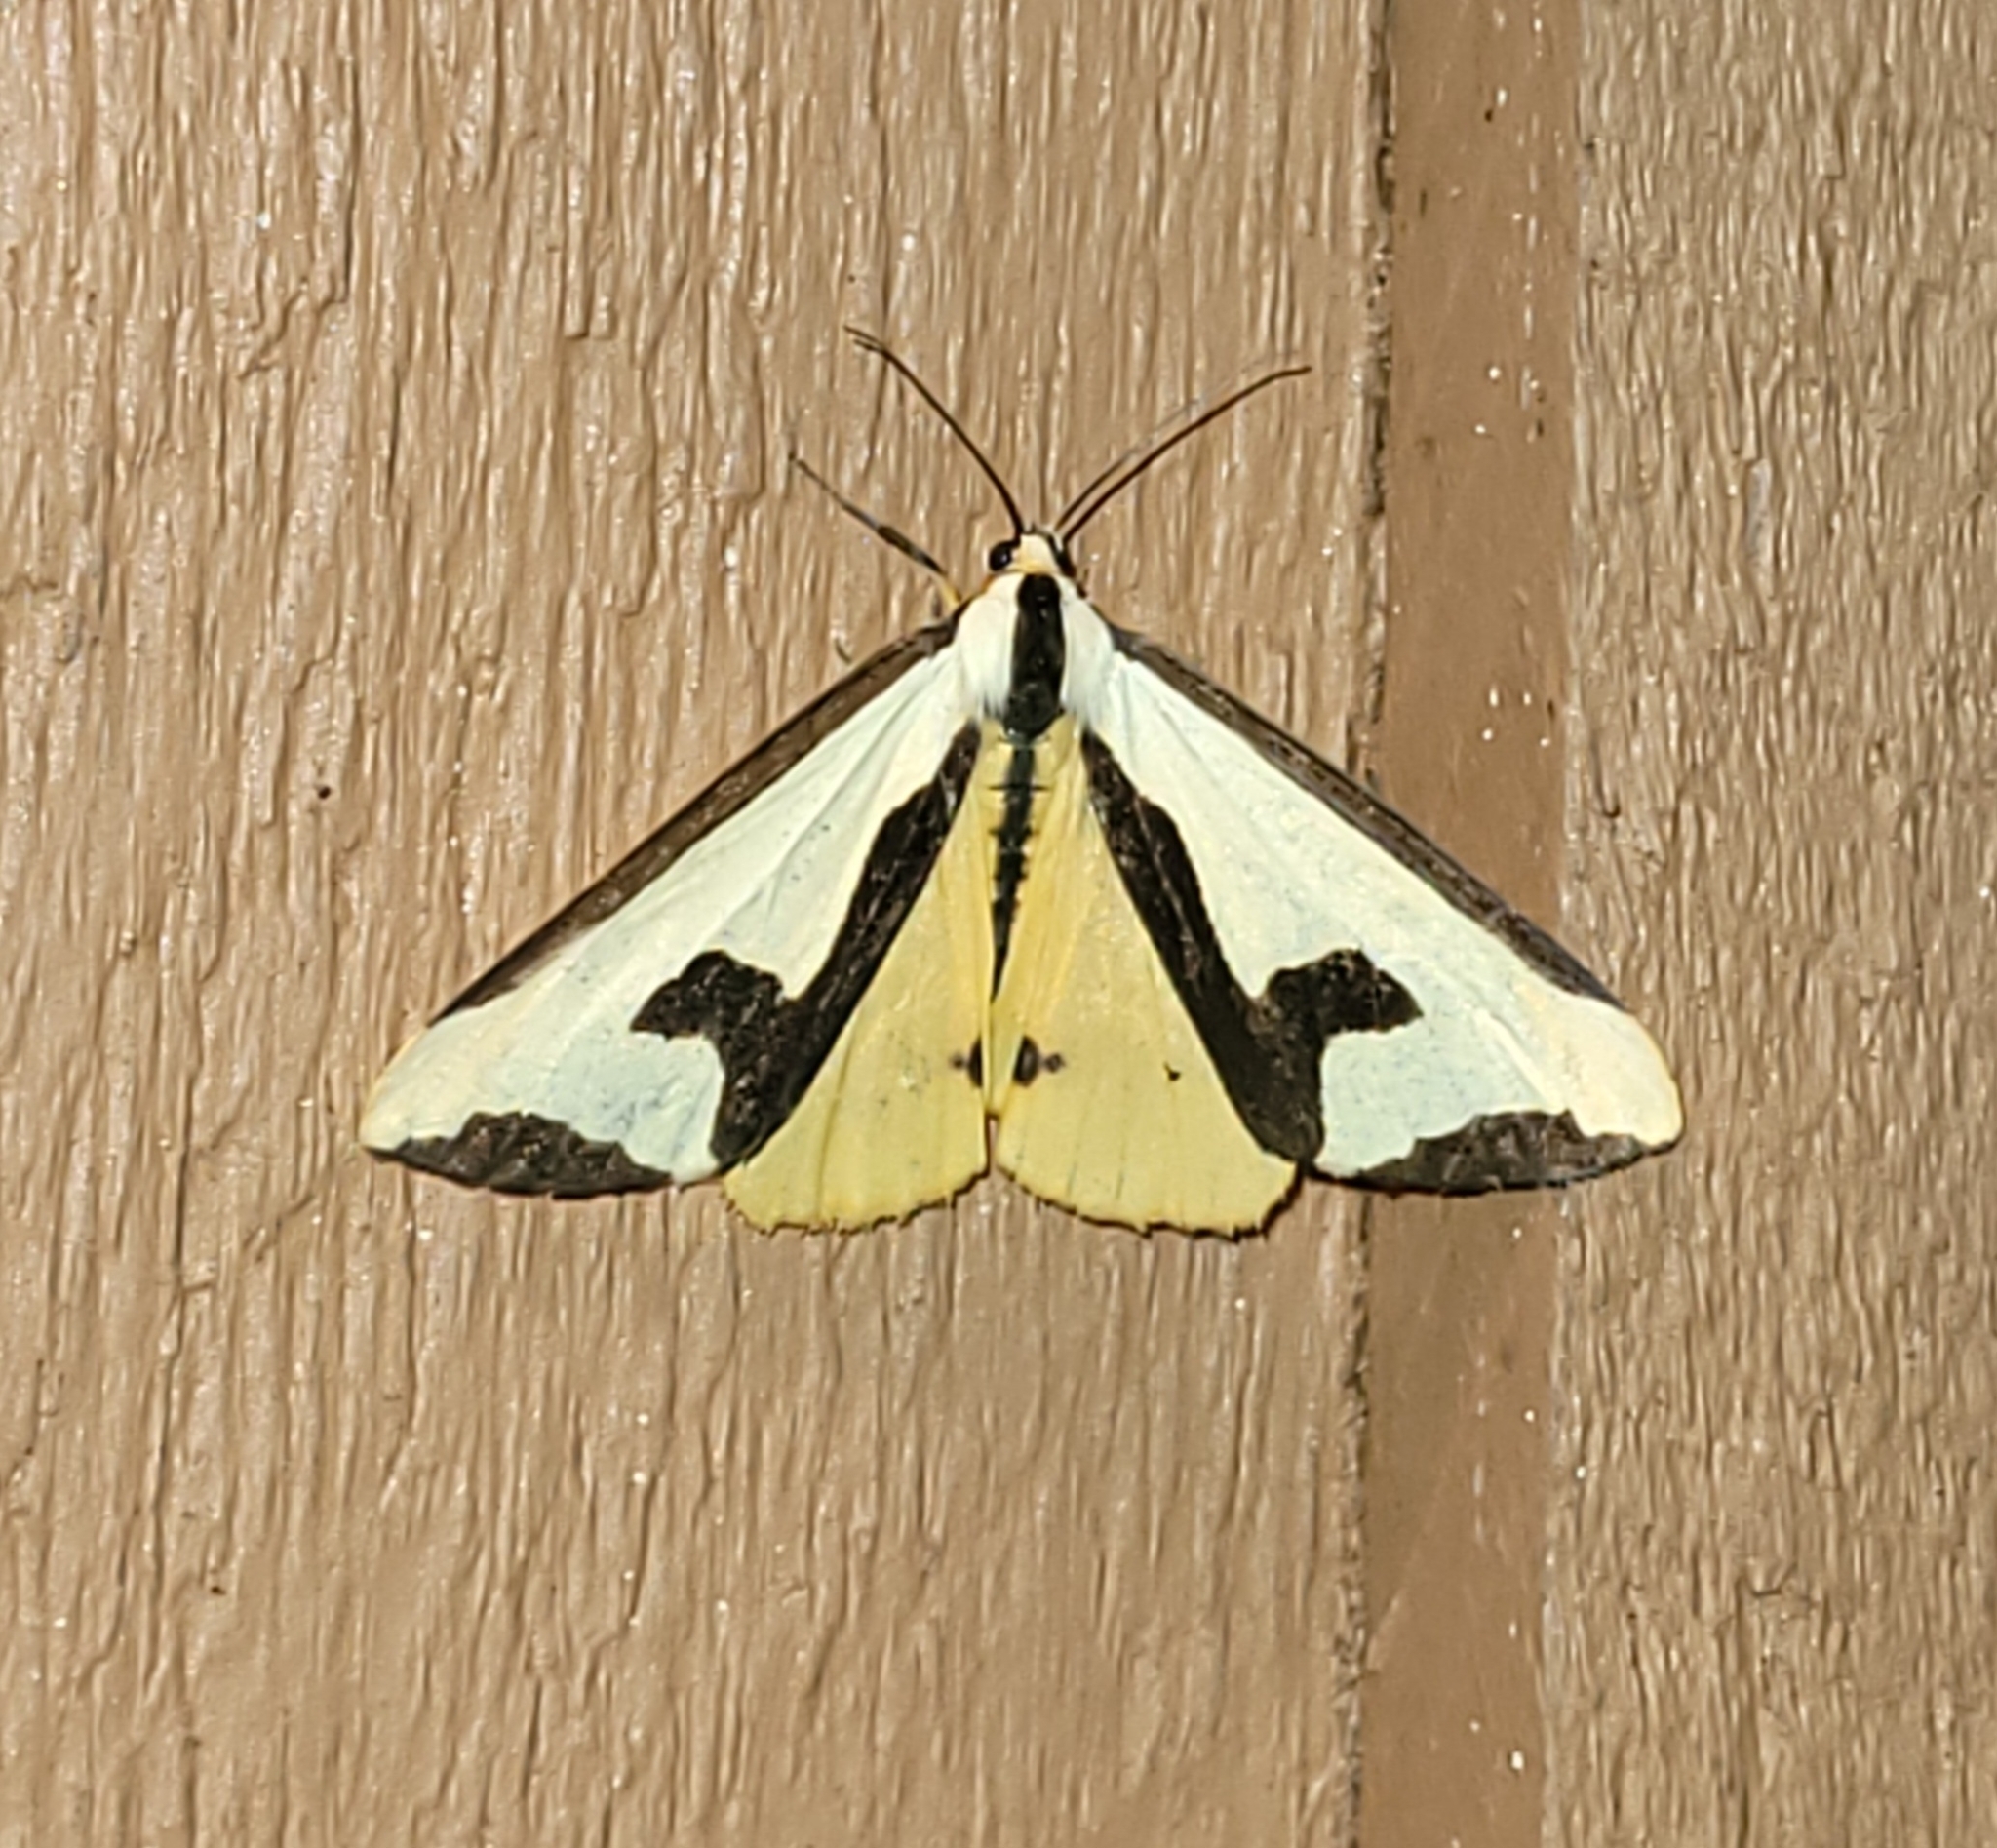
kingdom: Animalia
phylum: Arthropoda
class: Insecta
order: Lepidoptera
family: Erebidae
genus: Haploa
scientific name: Haploa clymene
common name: Clymene moth
